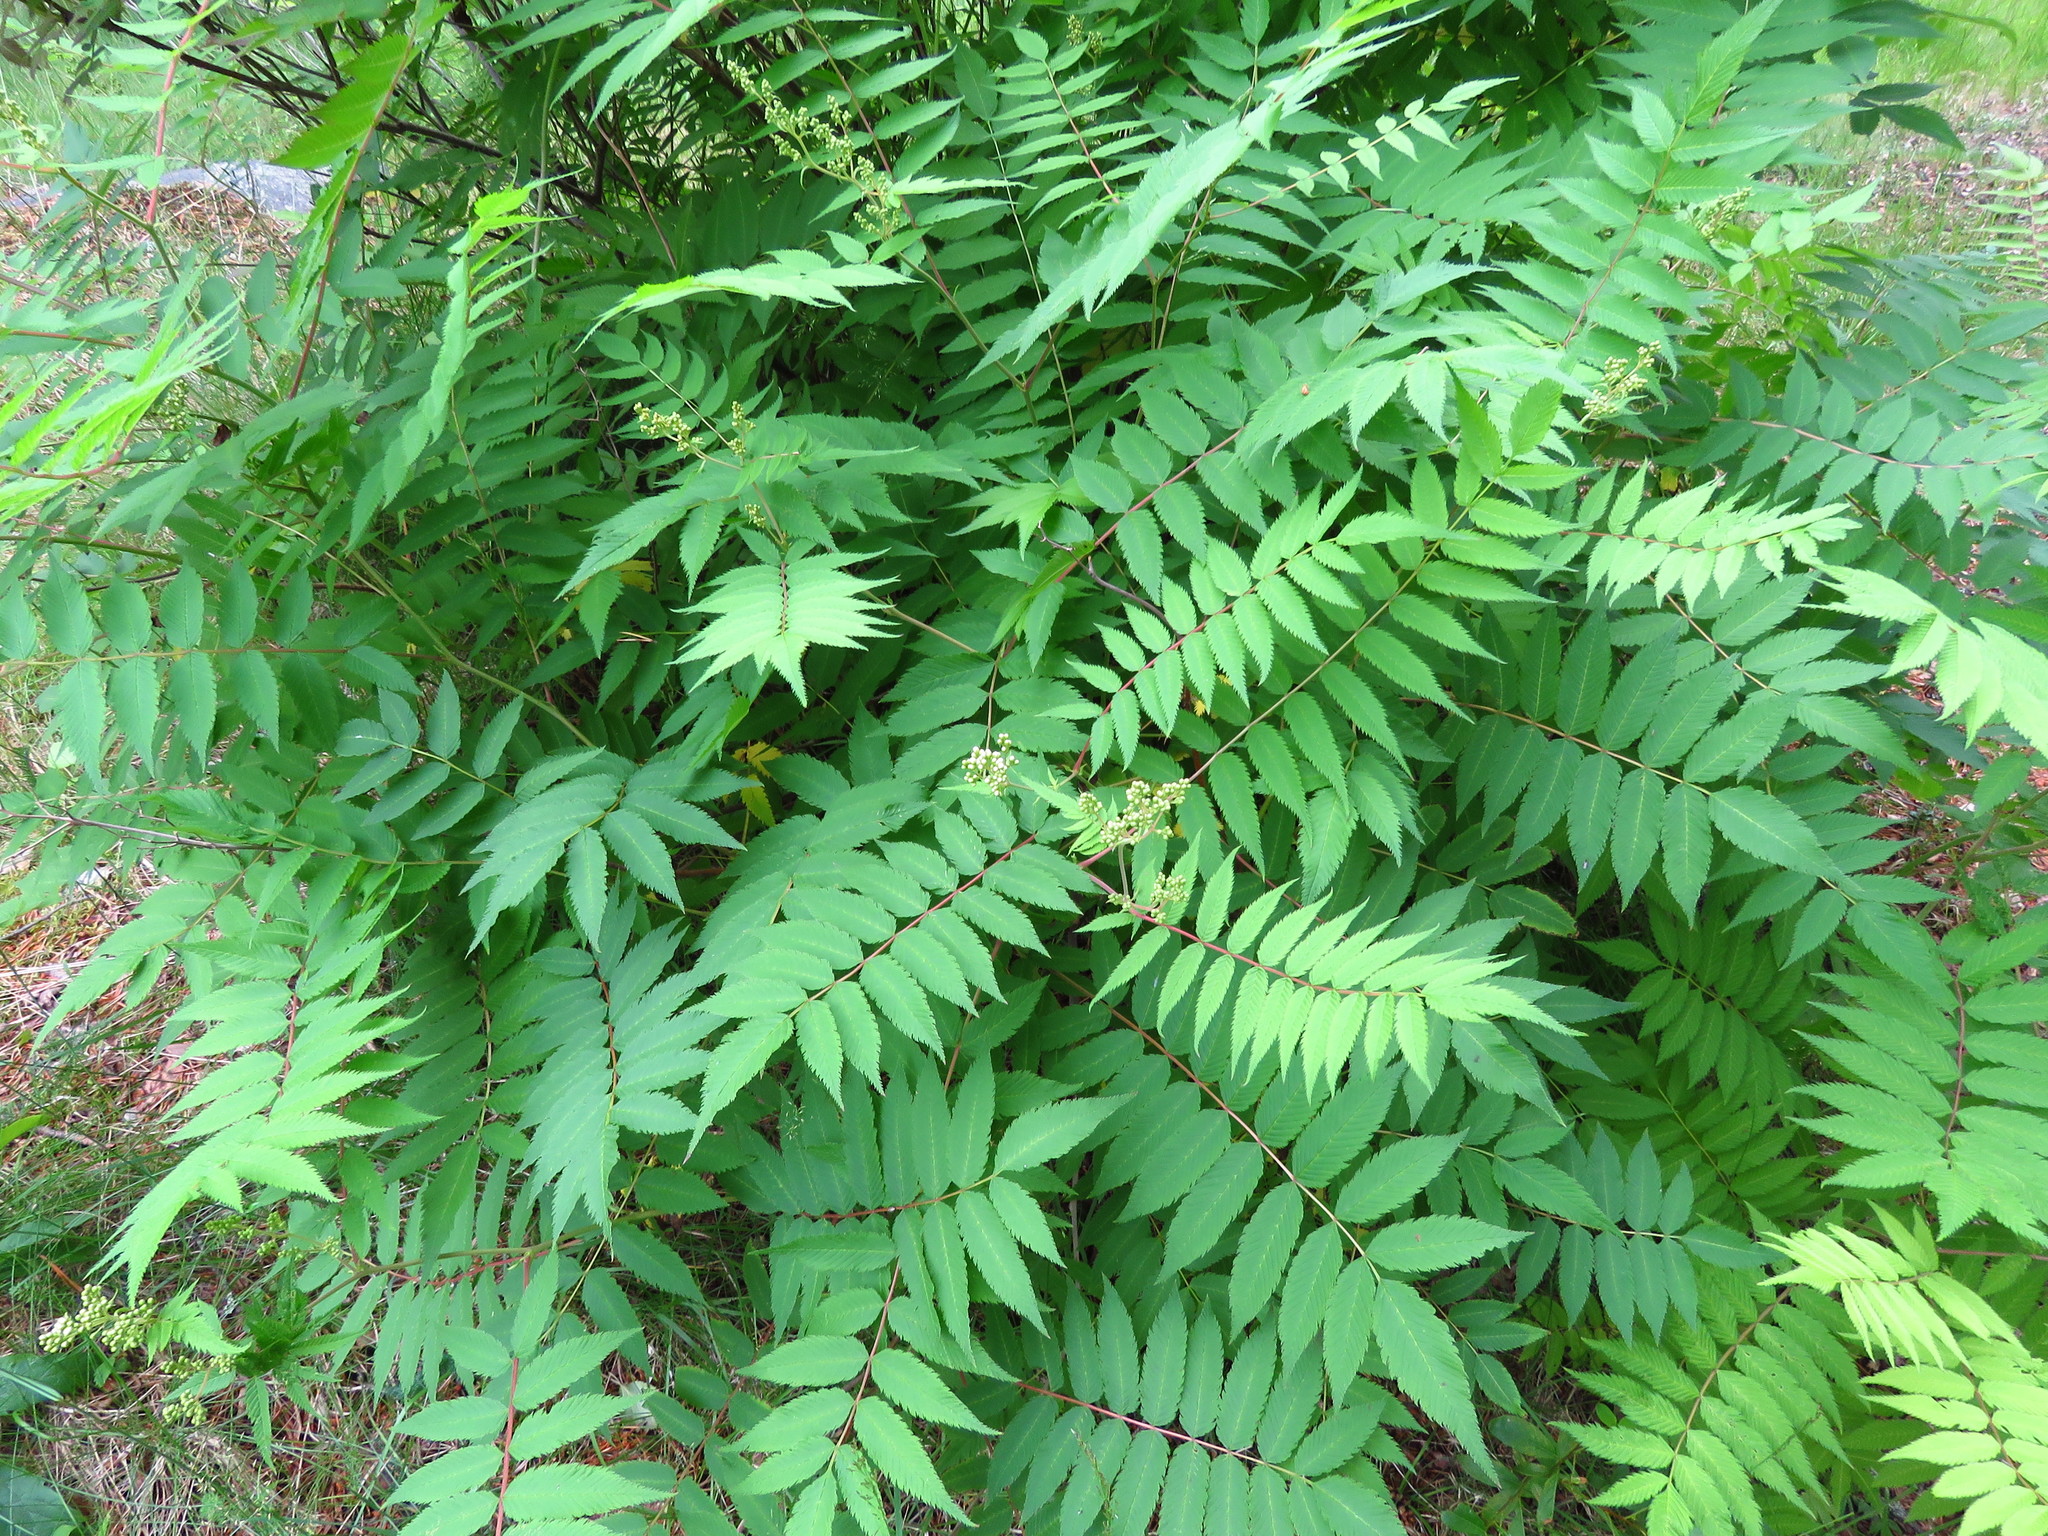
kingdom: Plantae
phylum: Tracheophyta
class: Magnoliopsida
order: Rosales
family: Rosaceae
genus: Sorbaria
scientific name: Sorbaria sorbifolia
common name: False spiraea
